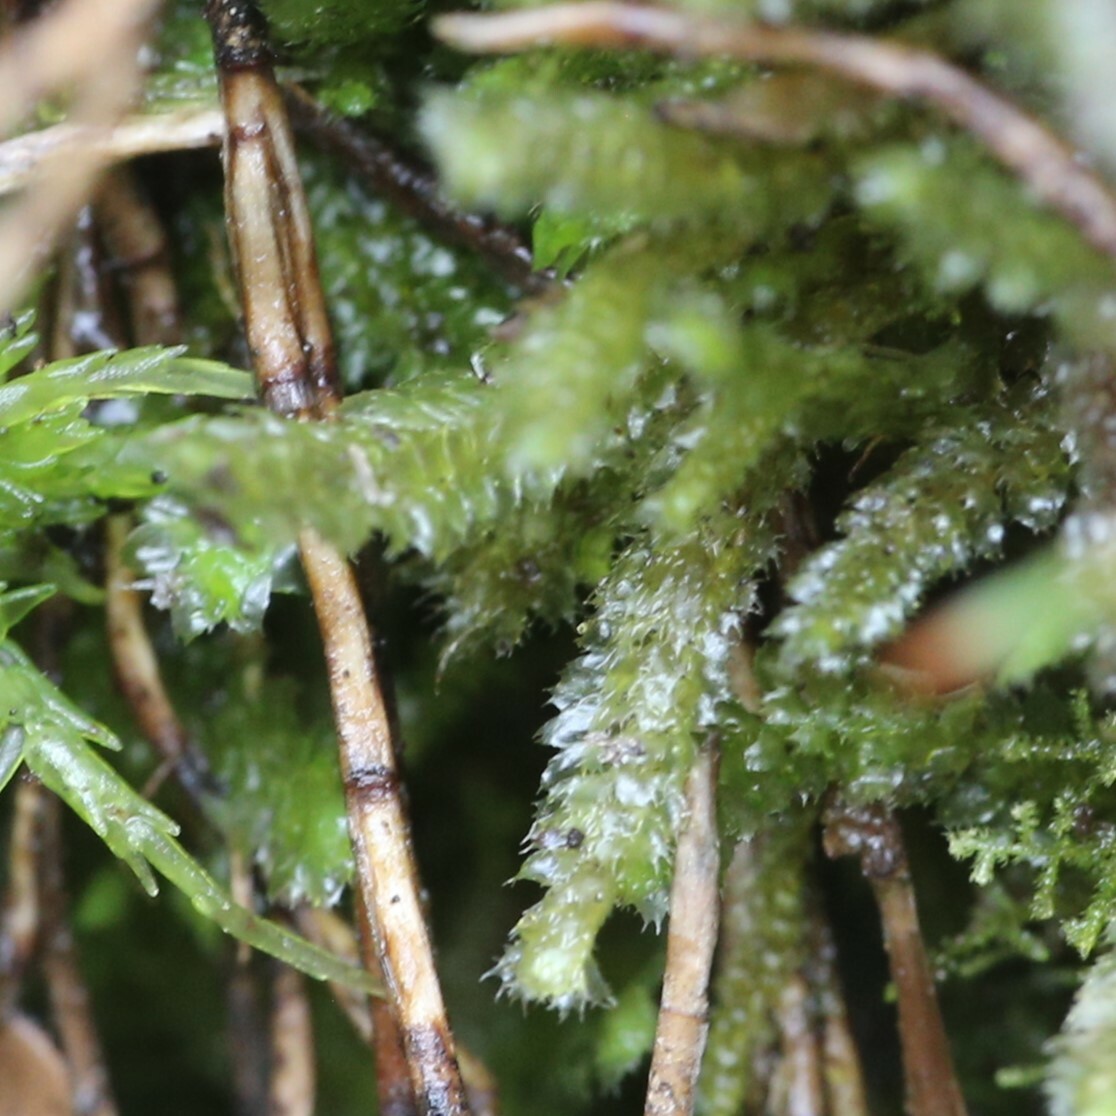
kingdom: Plantae
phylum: Marchantiophyta
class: Jungermanniopsida
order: Jungermanniales
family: Balantiopsidaceae
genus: Balantiopsis
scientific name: Balantiopsis tumida
